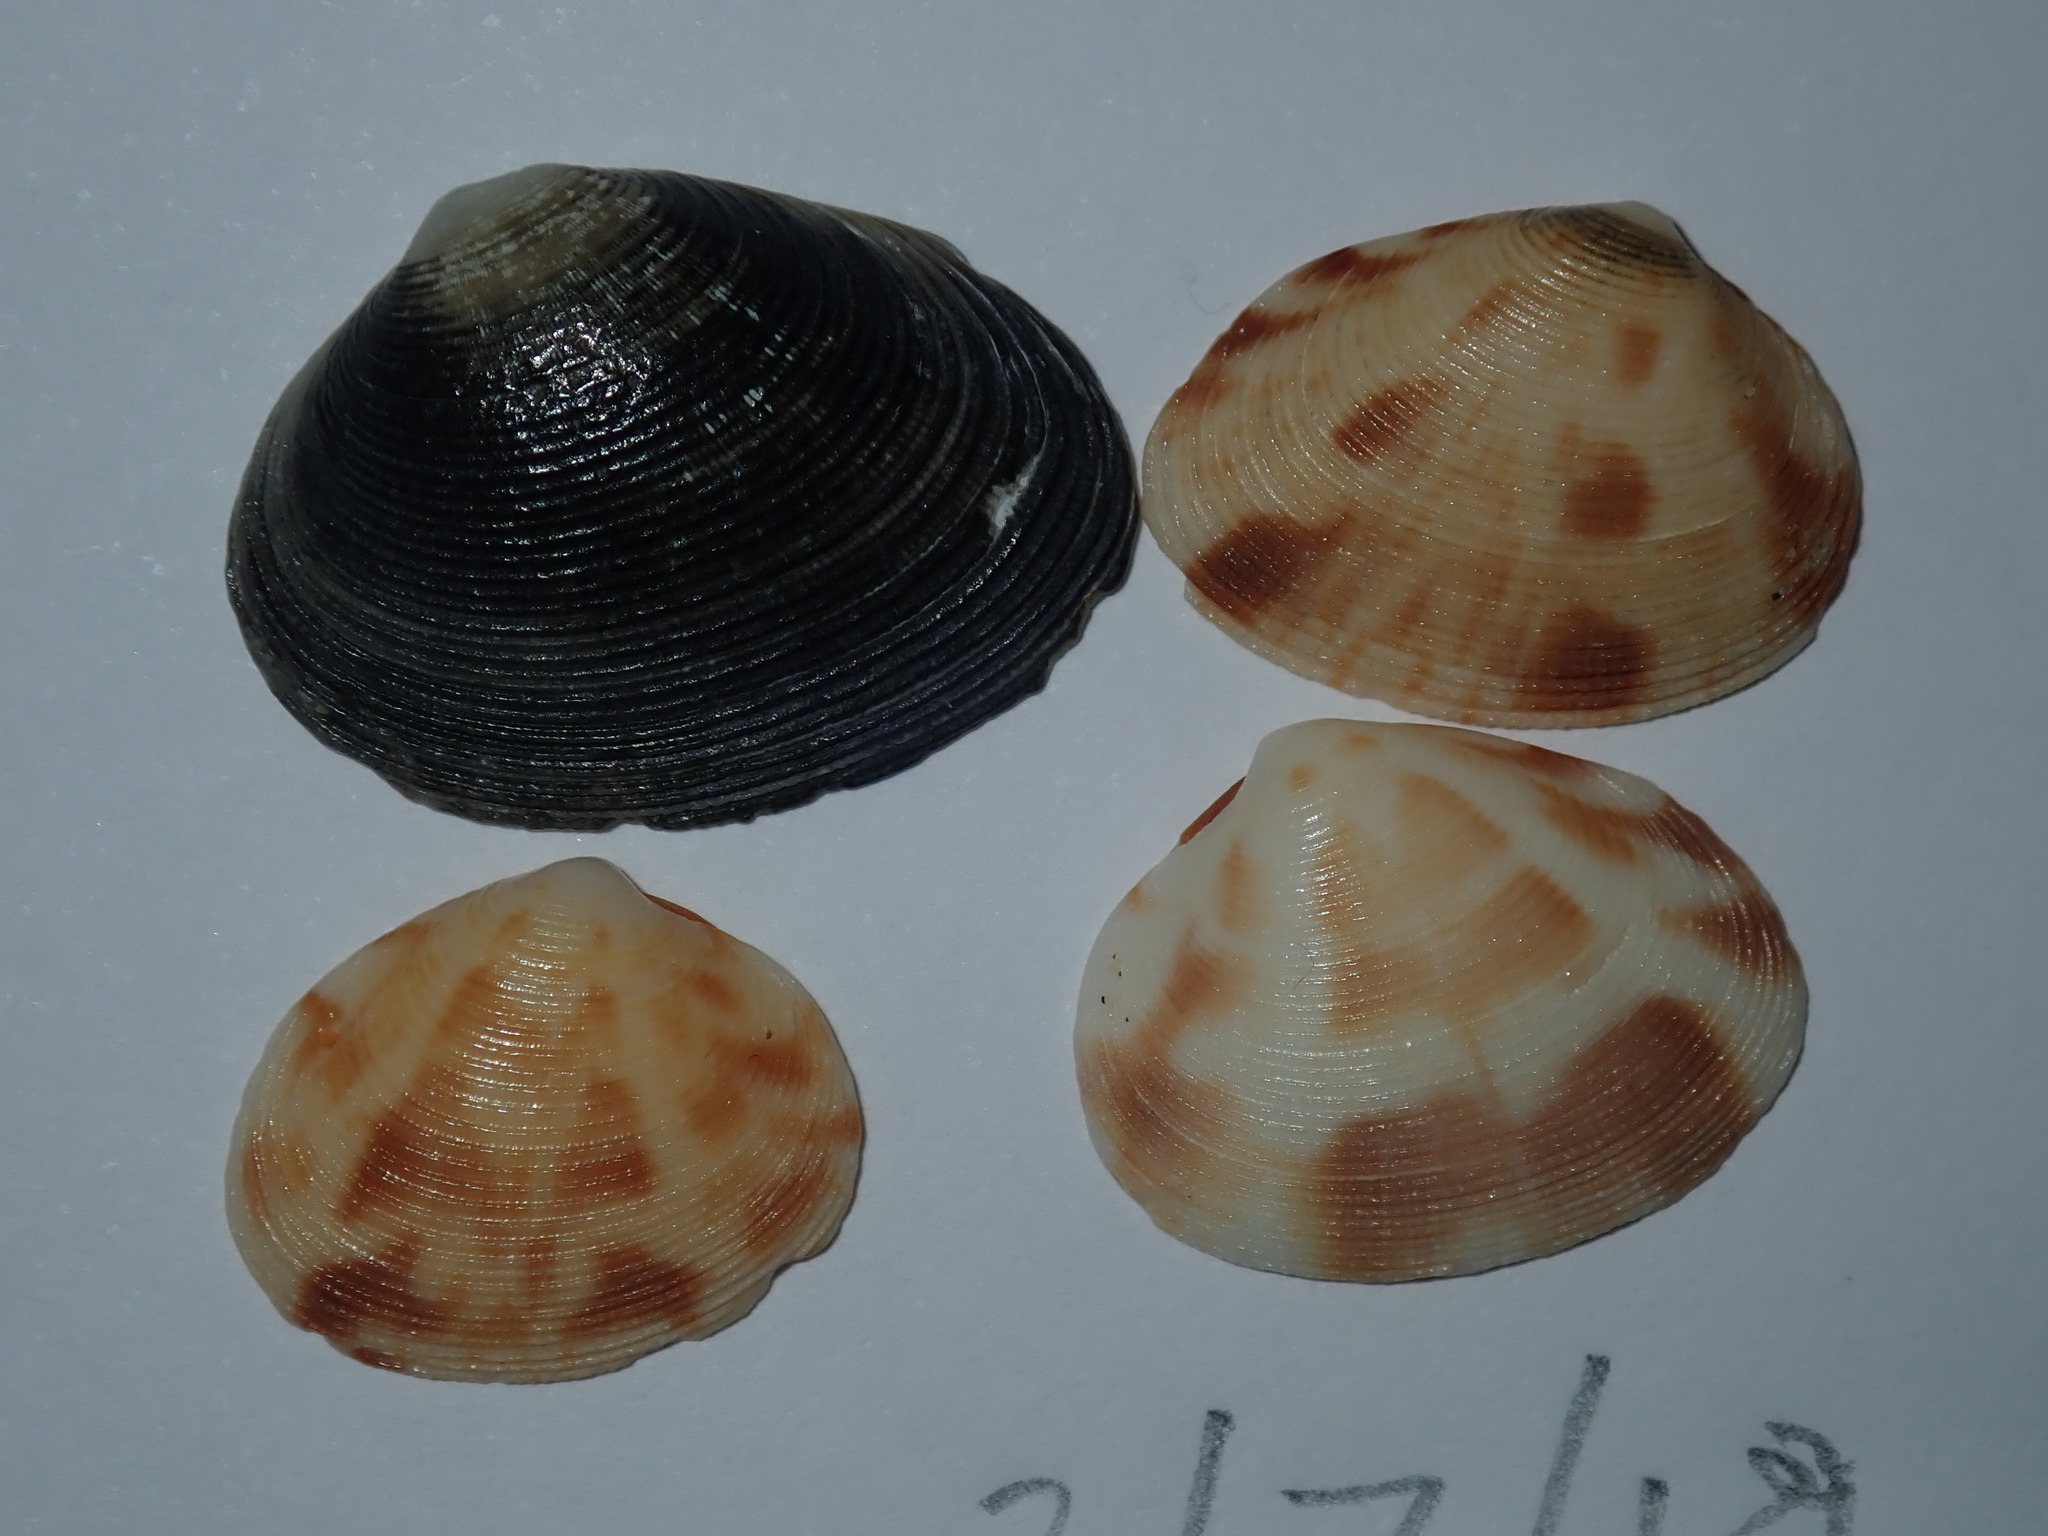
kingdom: Animalia
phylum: Mollusca
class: Bivalvia
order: Venerida
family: Veneridae
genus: Tawera
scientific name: Tawera lagopus
